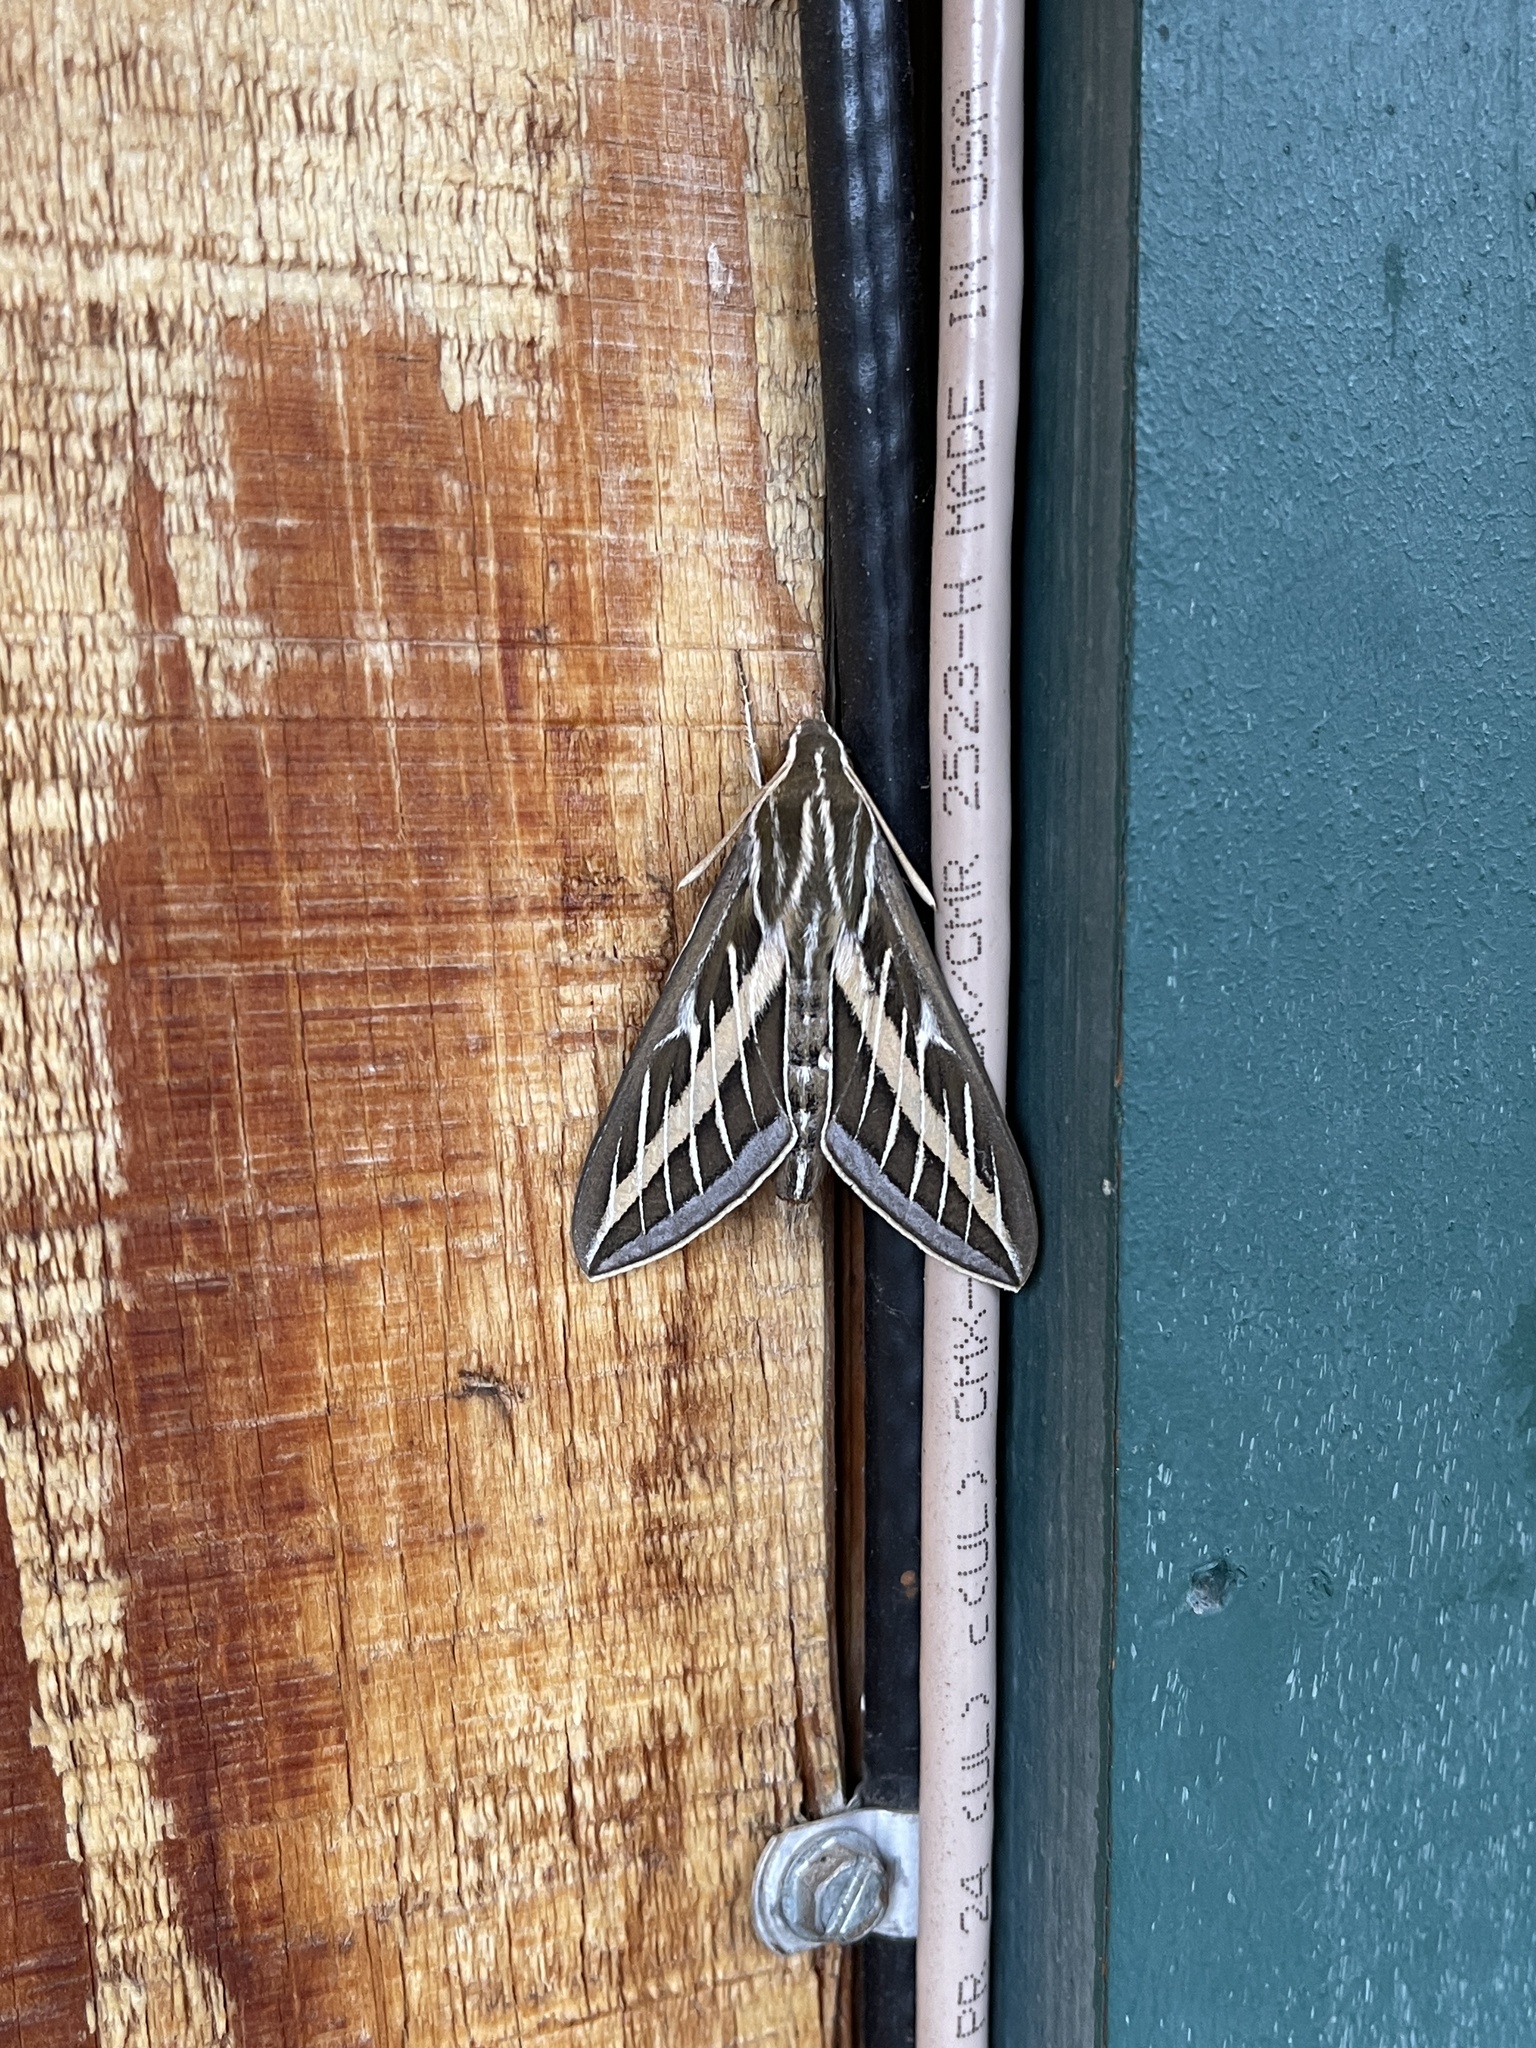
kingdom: Animalia
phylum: Arthropoda
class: Insecta
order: Lepidoptera
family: Sphingidae
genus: Hyles
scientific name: Hyles lineata
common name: White-lined sphinx
